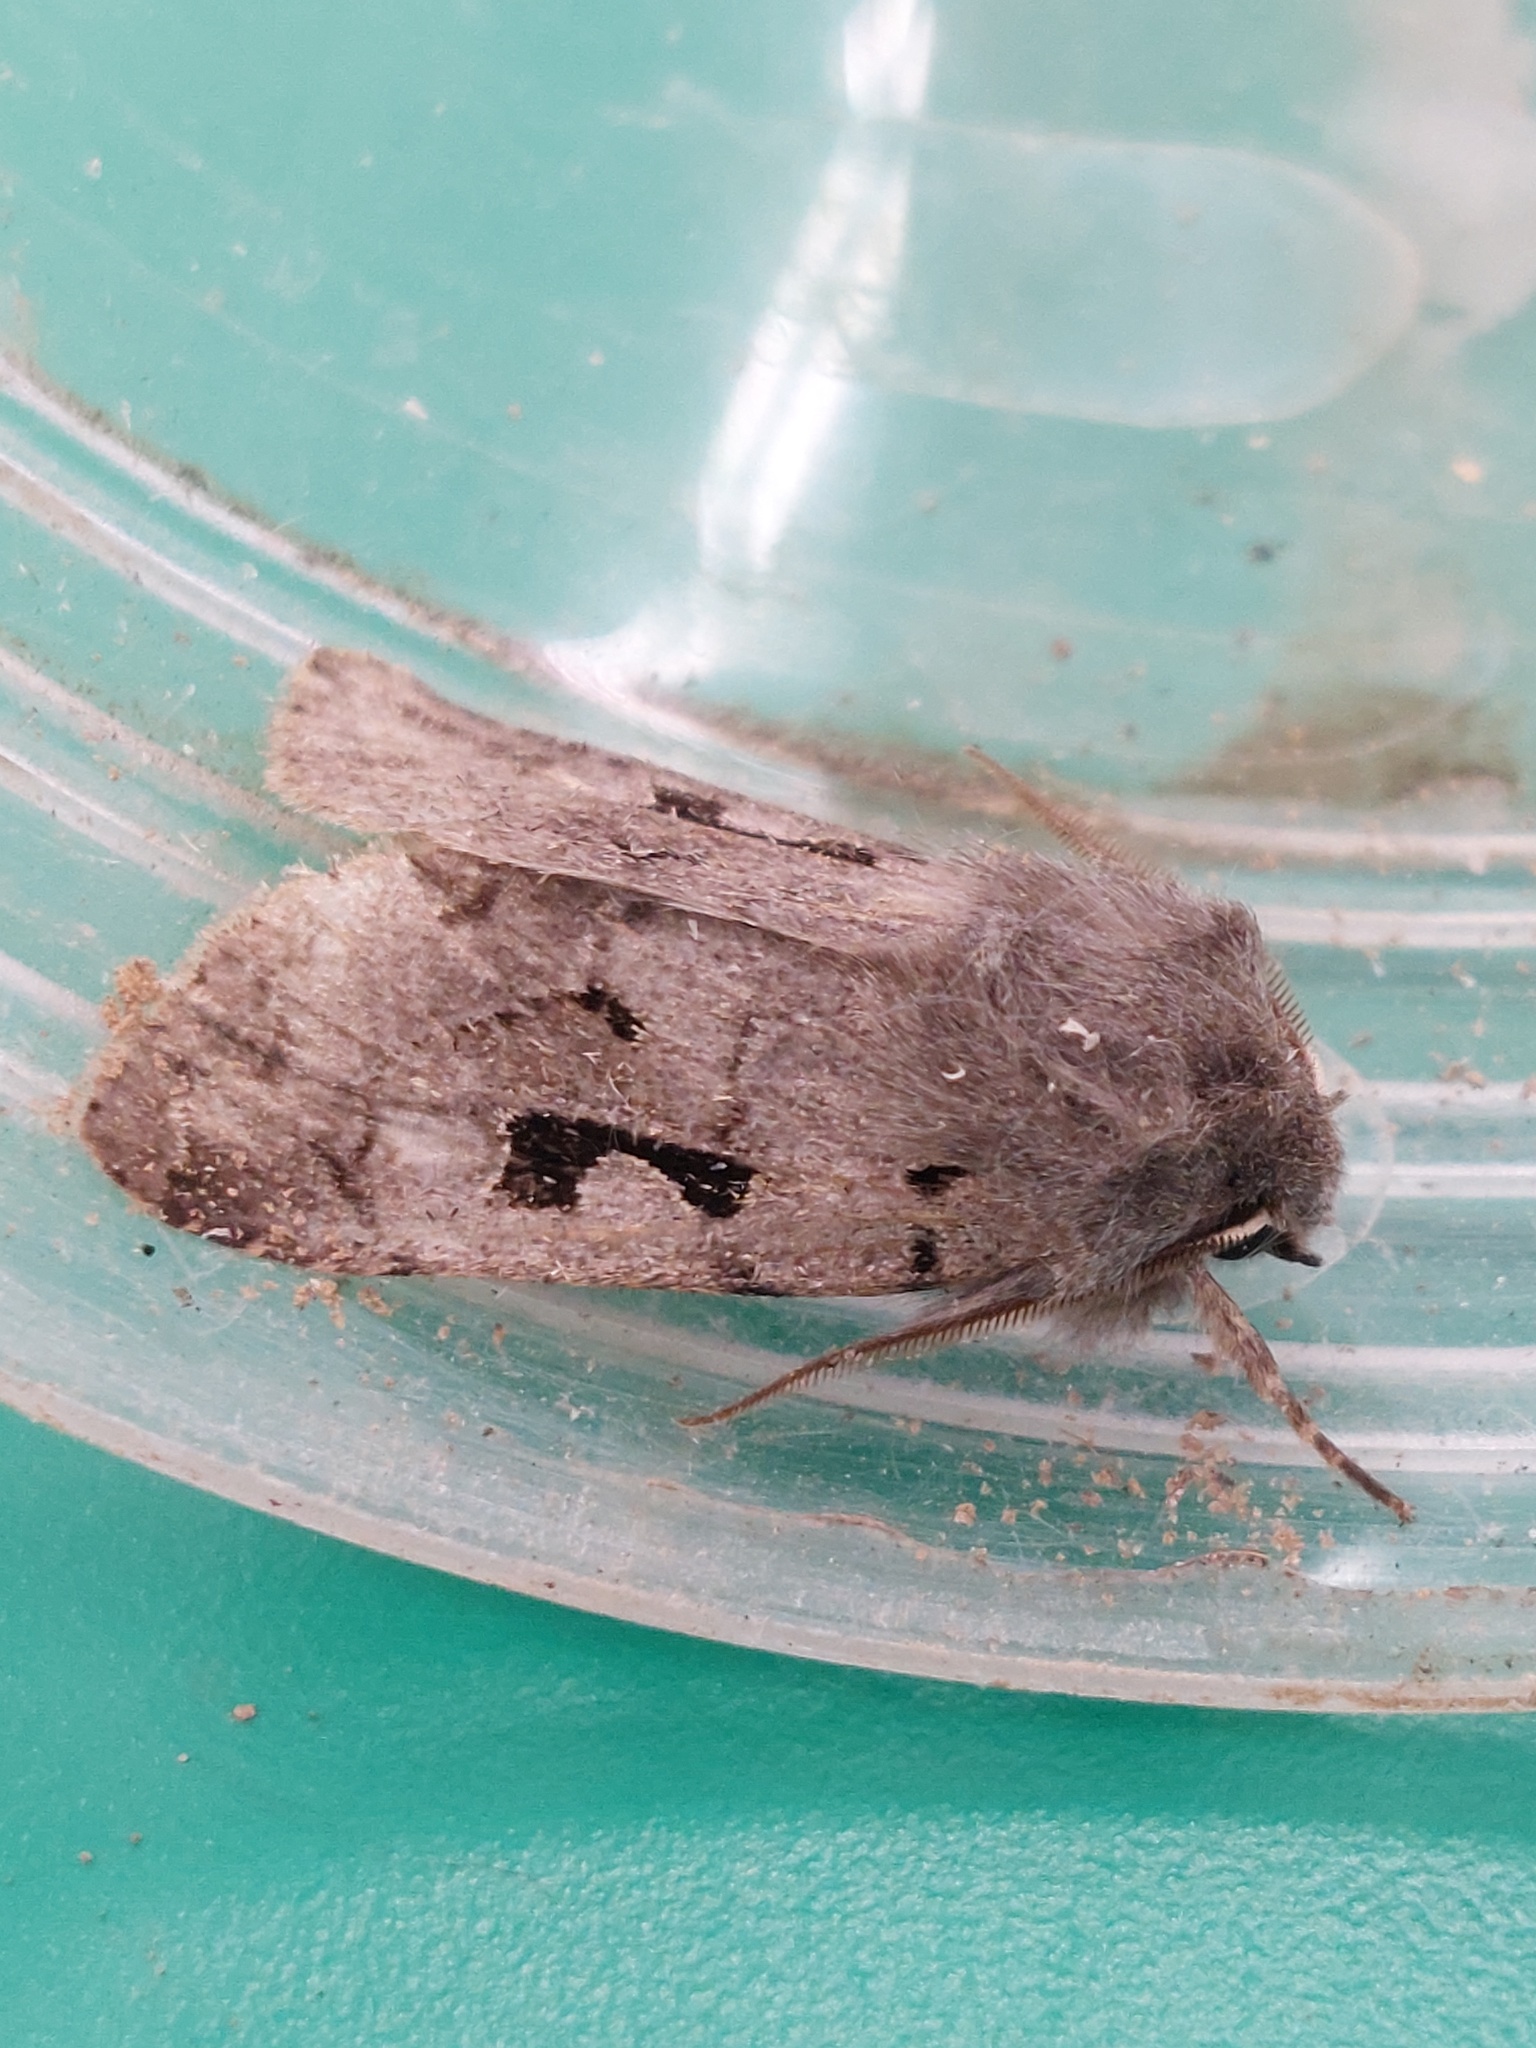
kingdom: Animalia
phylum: Arthropoda
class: Insecta
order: Lepidoptera
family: Noctuidae
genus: Orthosia
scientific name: Orthosia gothica
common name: Hebrew character
